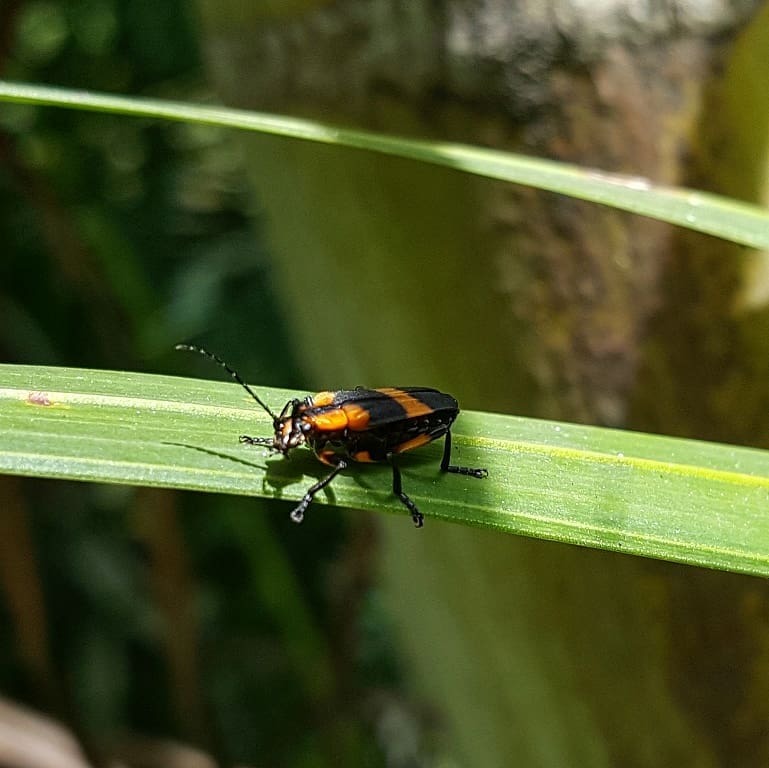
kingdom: Animalia
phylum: Arthropoda
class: Insecta
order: Coleoptera
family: Cantharidae
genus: Daiphron
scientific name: Daiphron proteum
